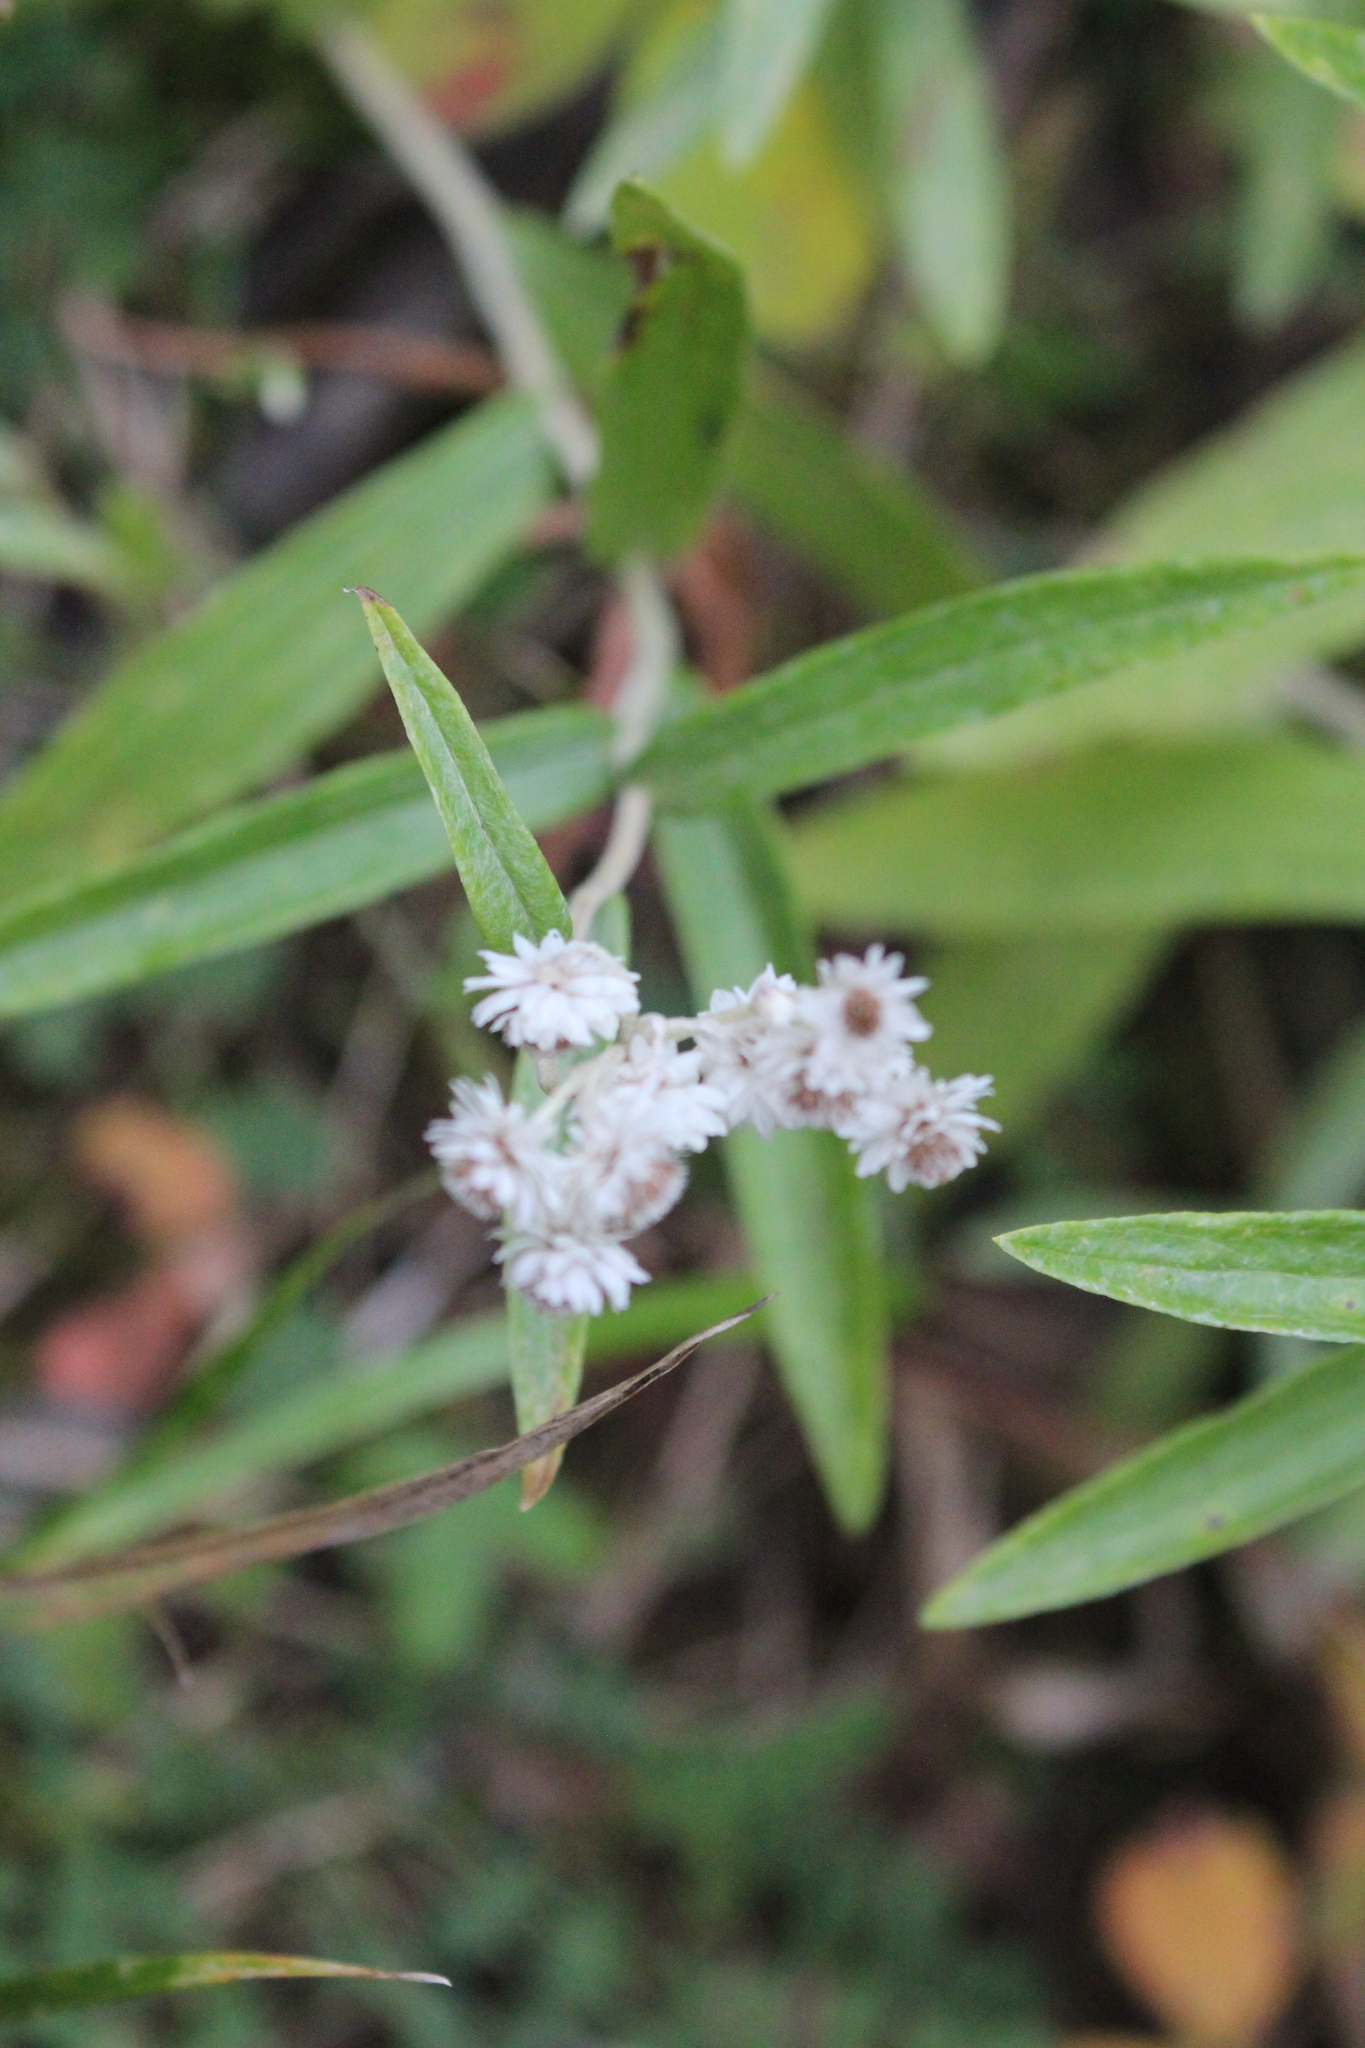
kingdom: Plantae
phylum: Tracheophyta
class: Magnoliopsida
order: Asterales
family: Asteraceae
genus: Anaphalis
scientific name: Anaphalis margaritacea
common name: Pearly everlasting
